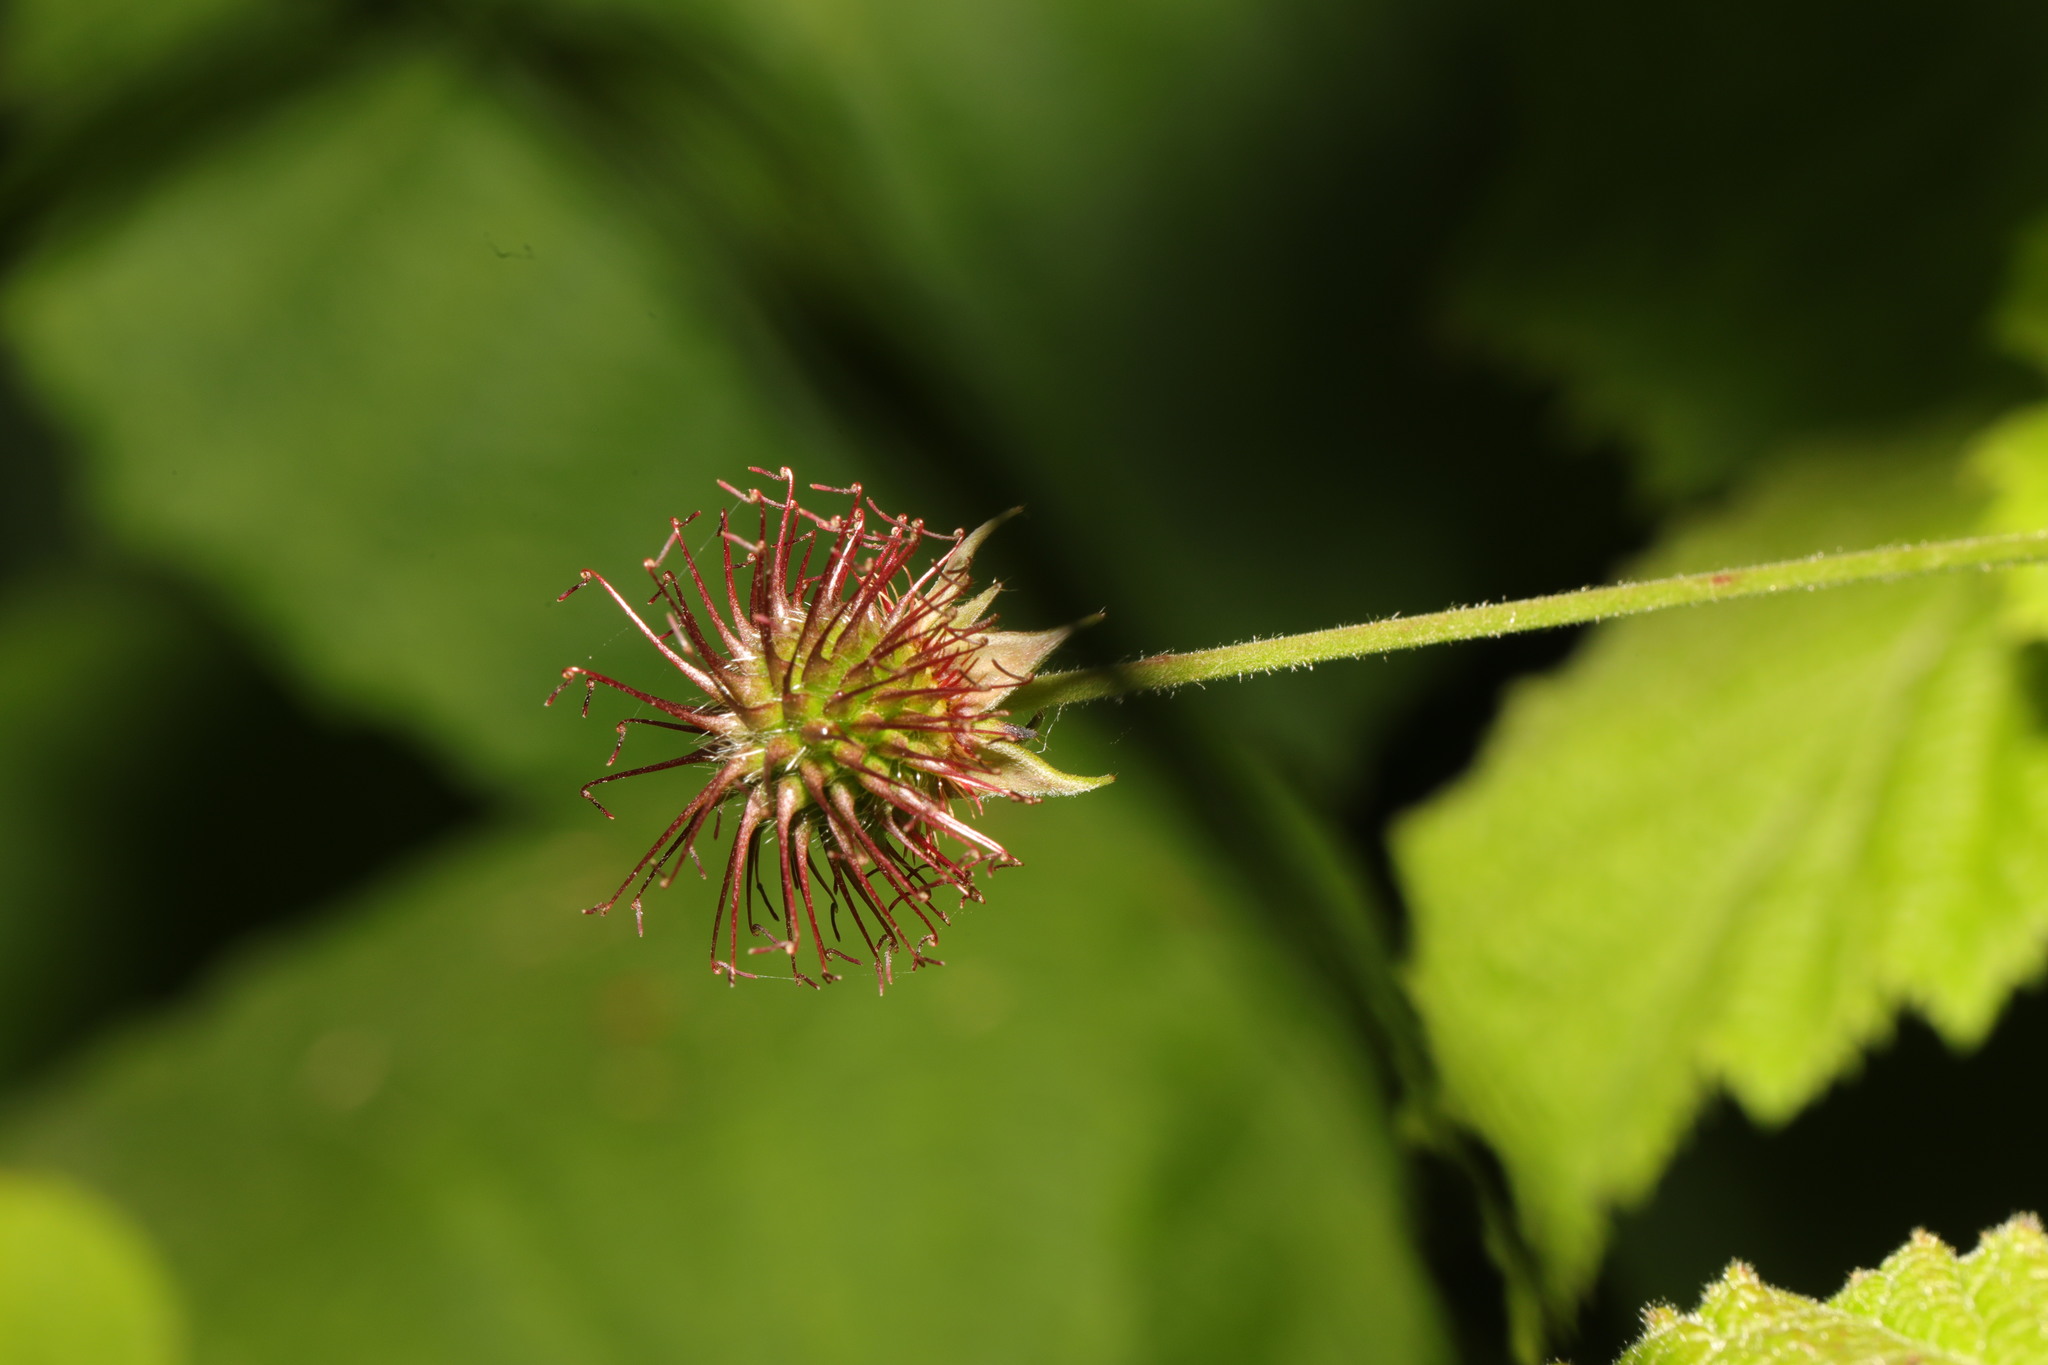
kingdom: Plantae
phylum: Tracheophyta
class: Magnoliopsida
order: Rosales
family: Rosaceae
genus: Geum
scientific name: Geum urbanum
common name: Wood avens
